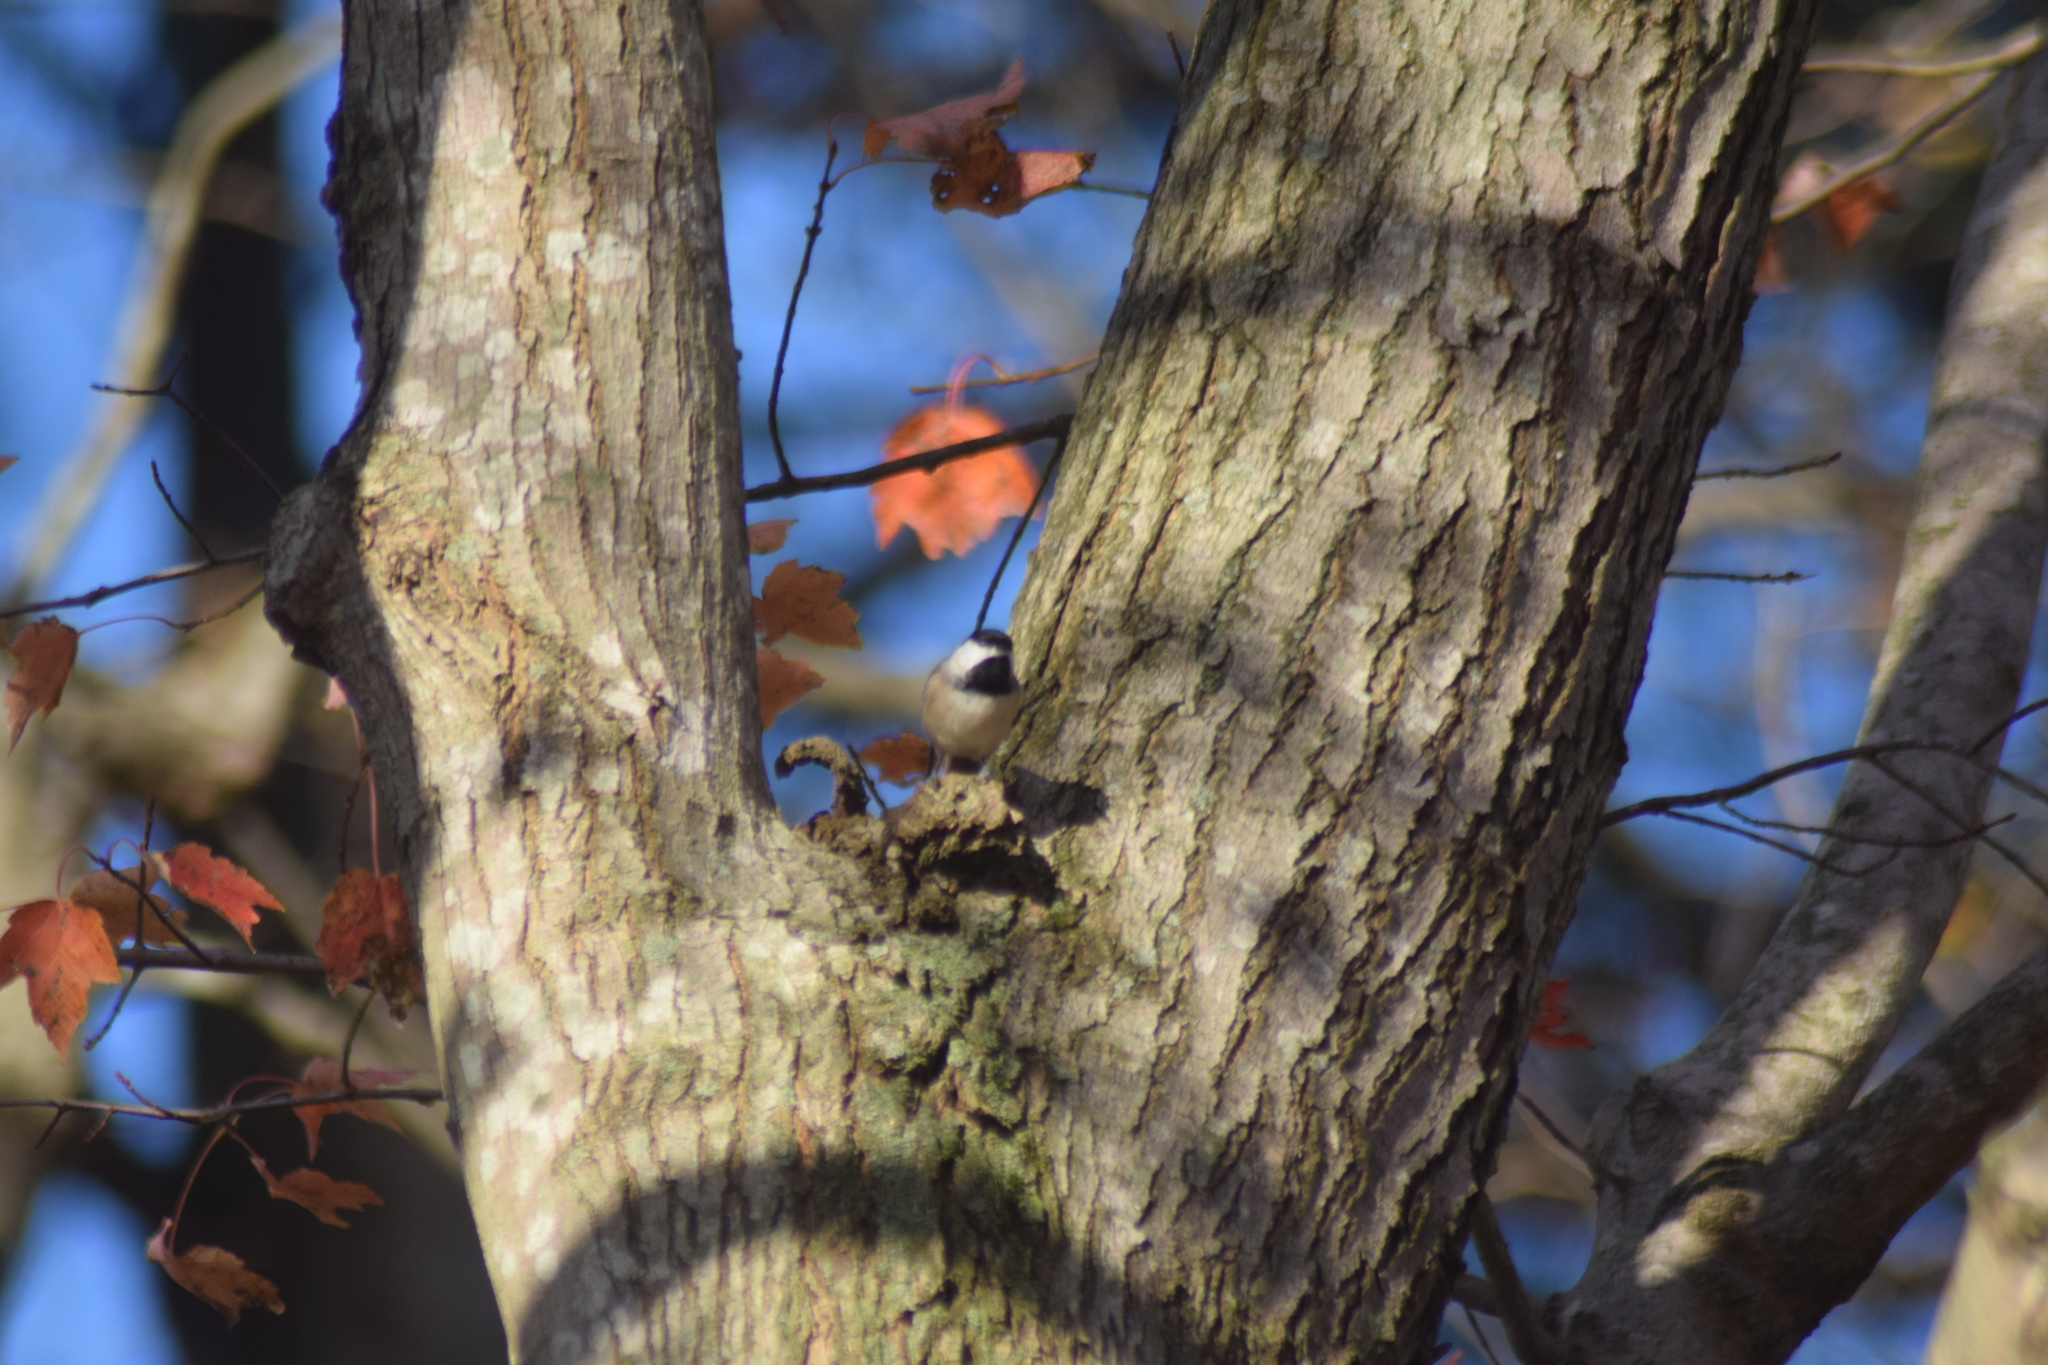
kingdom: Animalia
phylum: Chordata
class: Aves
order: Passeriformes
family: Paridae
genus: Poecile
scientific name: Poecile carolinensis
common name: Carolina chickadee
